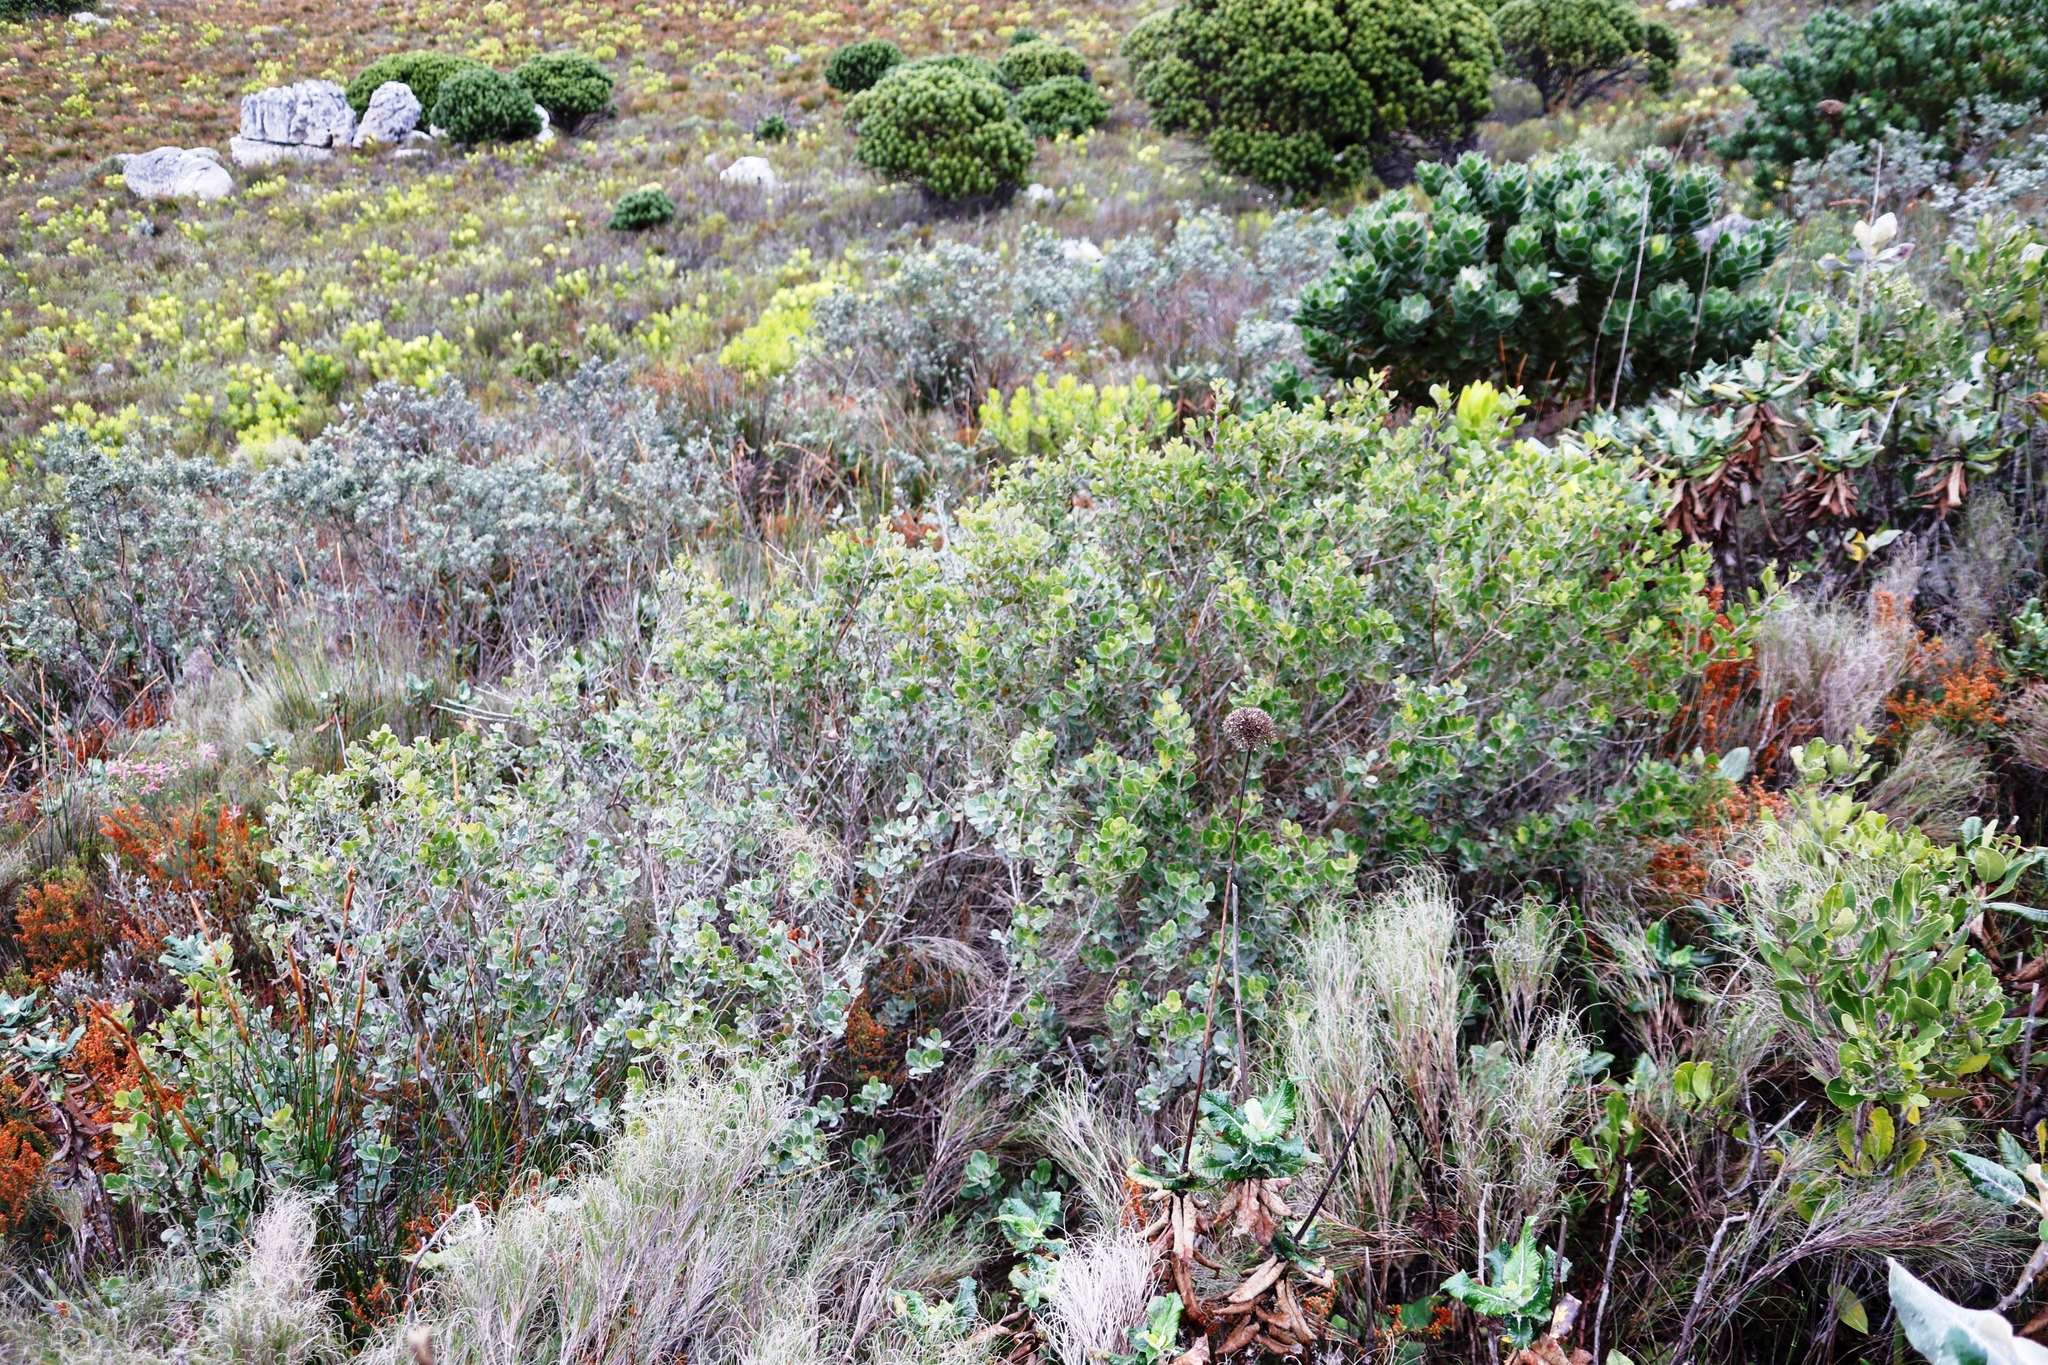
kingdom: Plantae
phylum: Tracheophyta
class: Magnoliopsida
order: Sapindales
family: Anacardiaceae
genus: Searsia
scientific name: Searsia lucida
